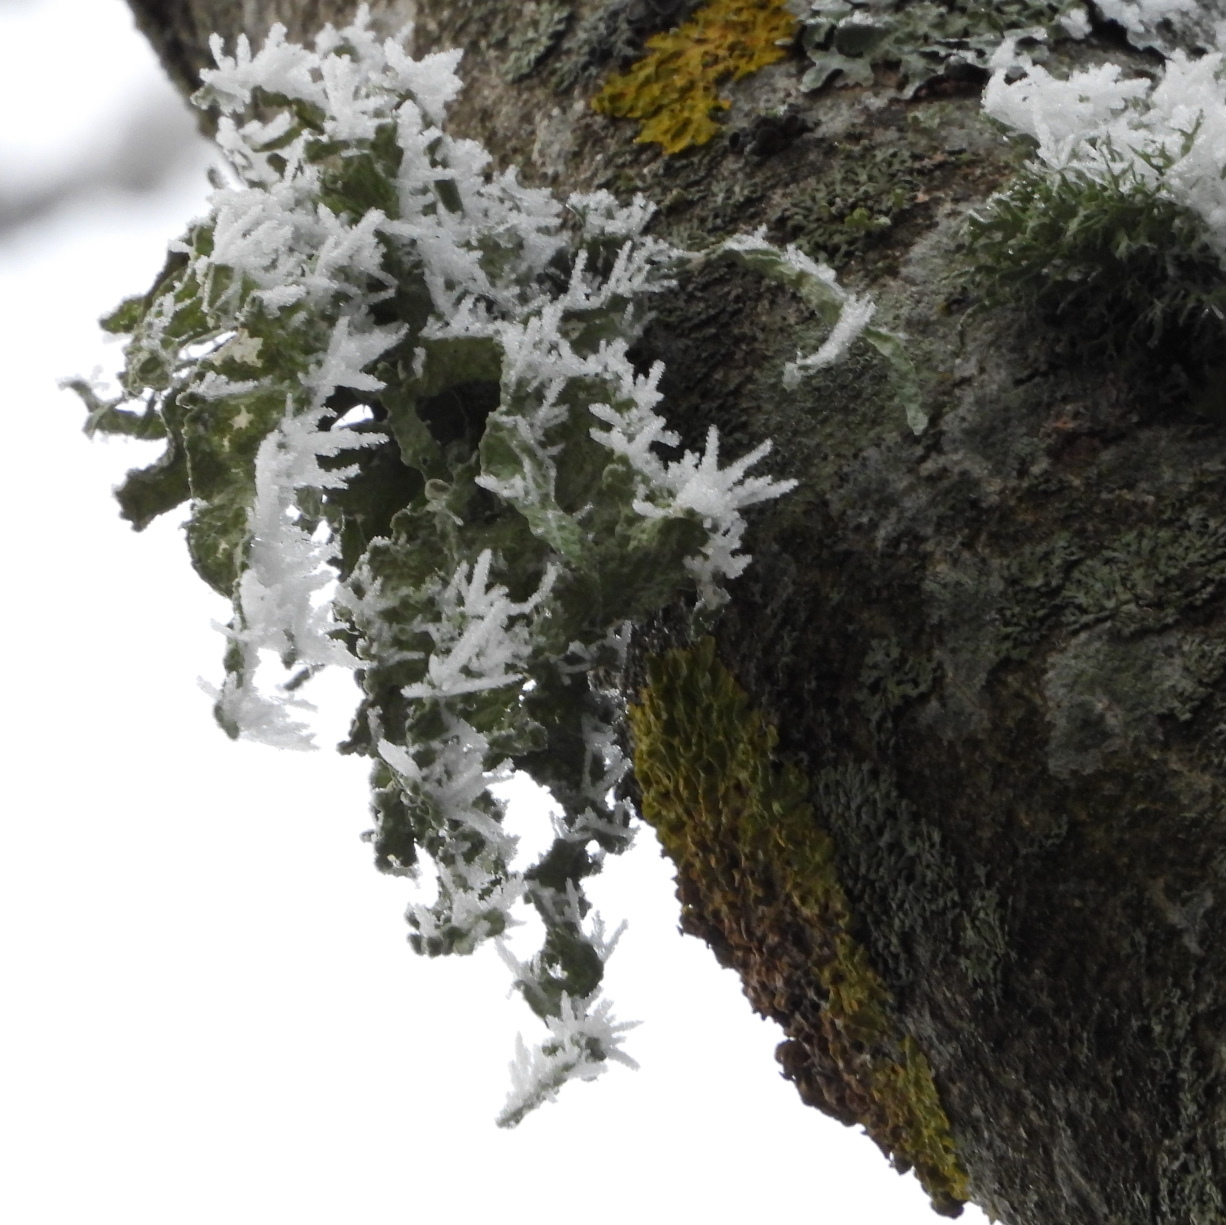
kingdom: Fungi
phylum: Ascomycota
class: Lecanoromycetes
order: Lecanorales
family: Ramalinaceae
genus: Ramalina
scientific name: Ramalina fraxinea
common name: Cartilage lichen
